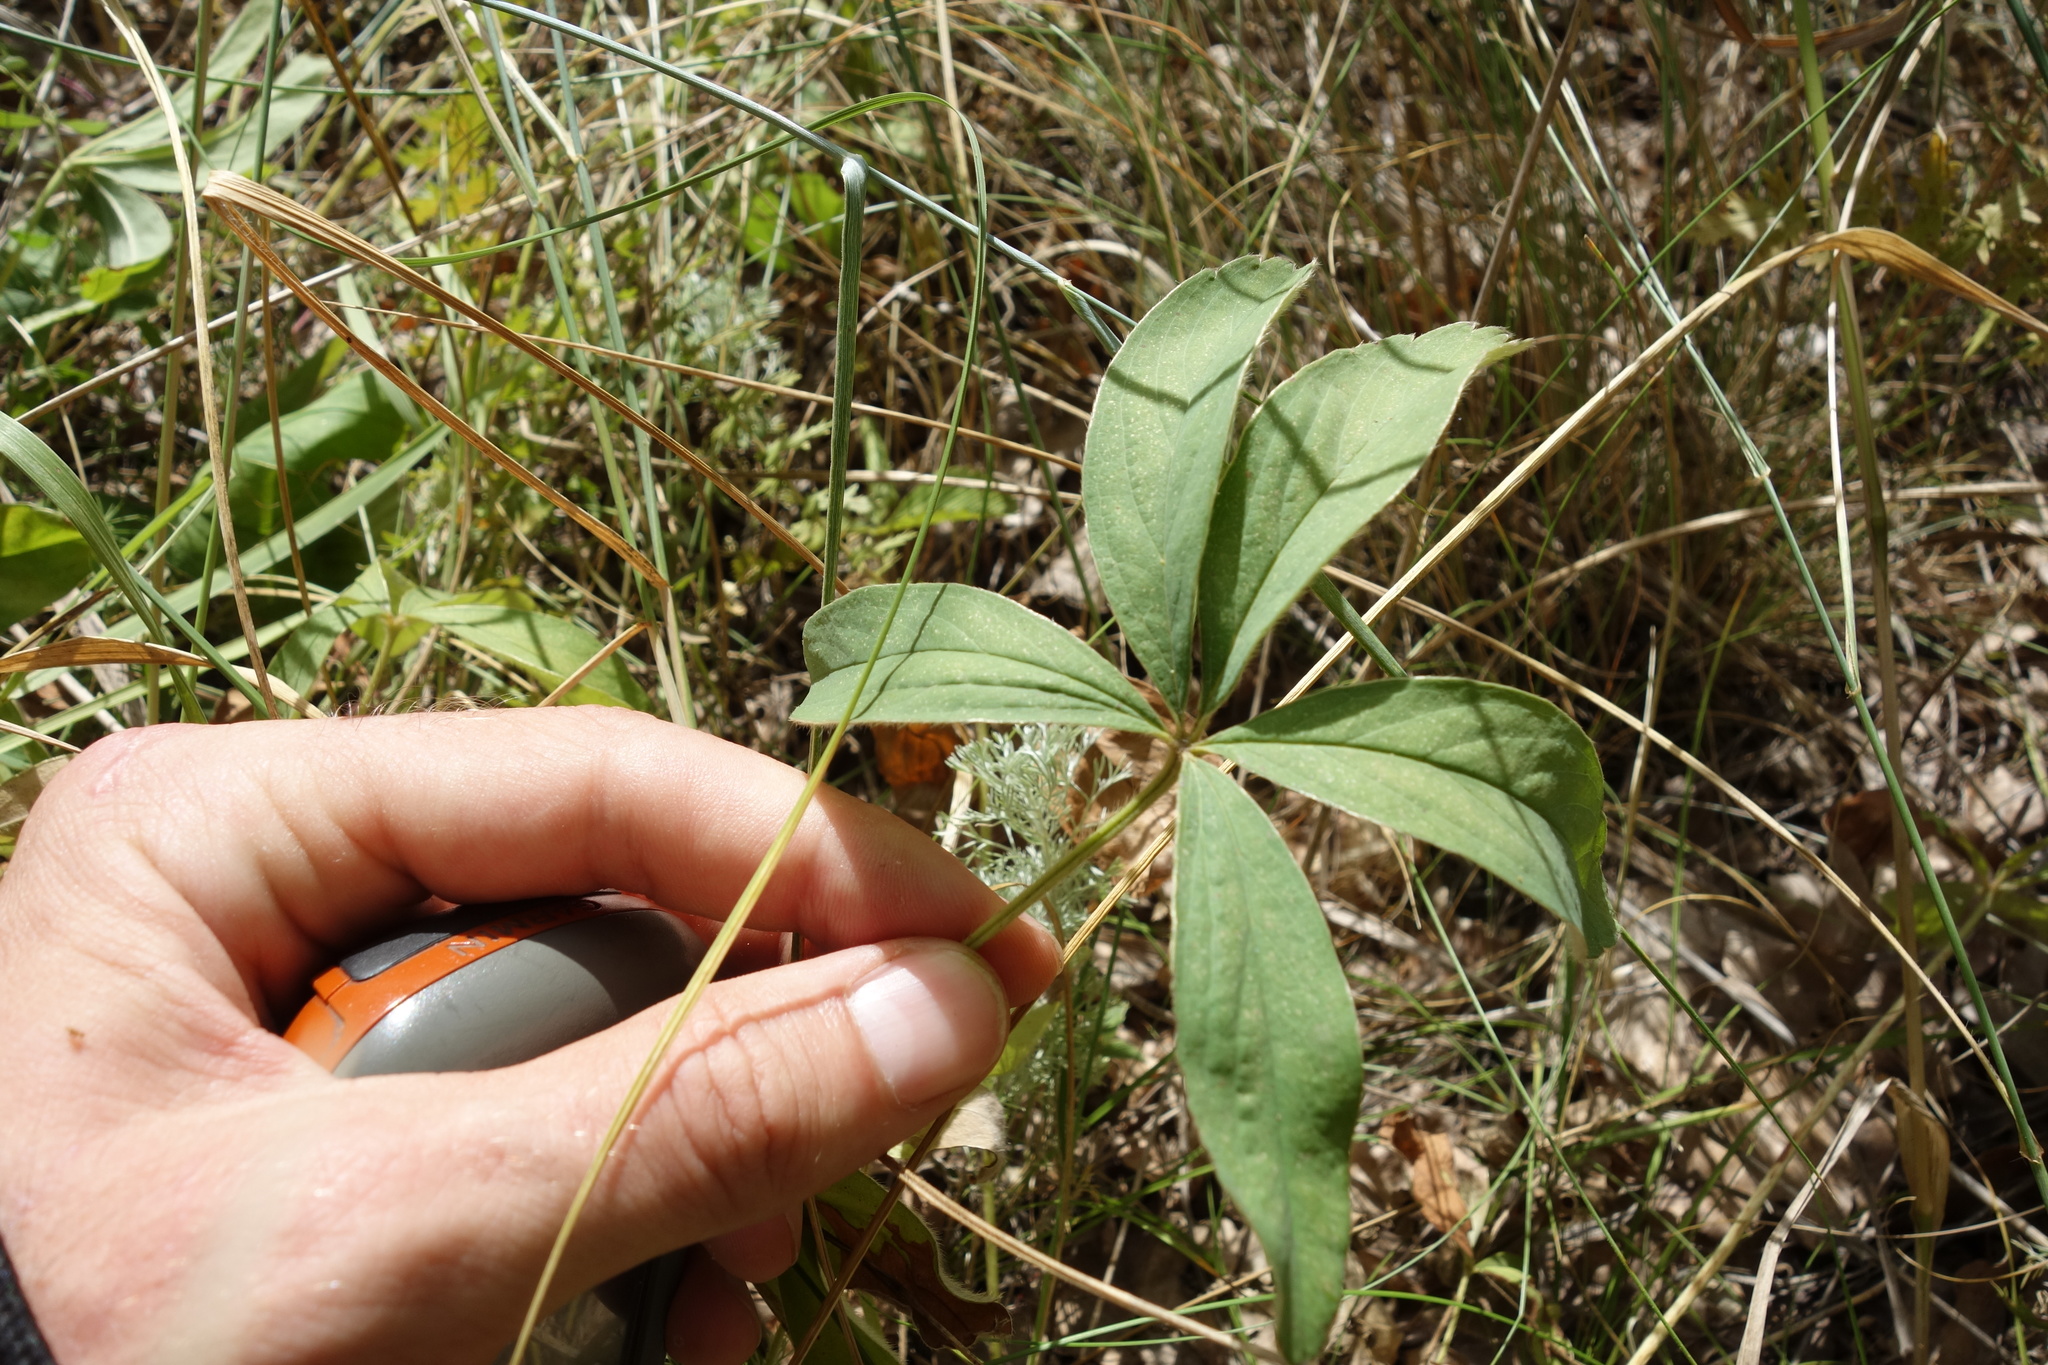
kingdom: Plantae
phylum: Tracheophyta
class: Magnoliopsida
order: Rosales
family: Rosaceae
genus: Potentilla
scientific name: Potentilla alba
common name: White cinquefoil
